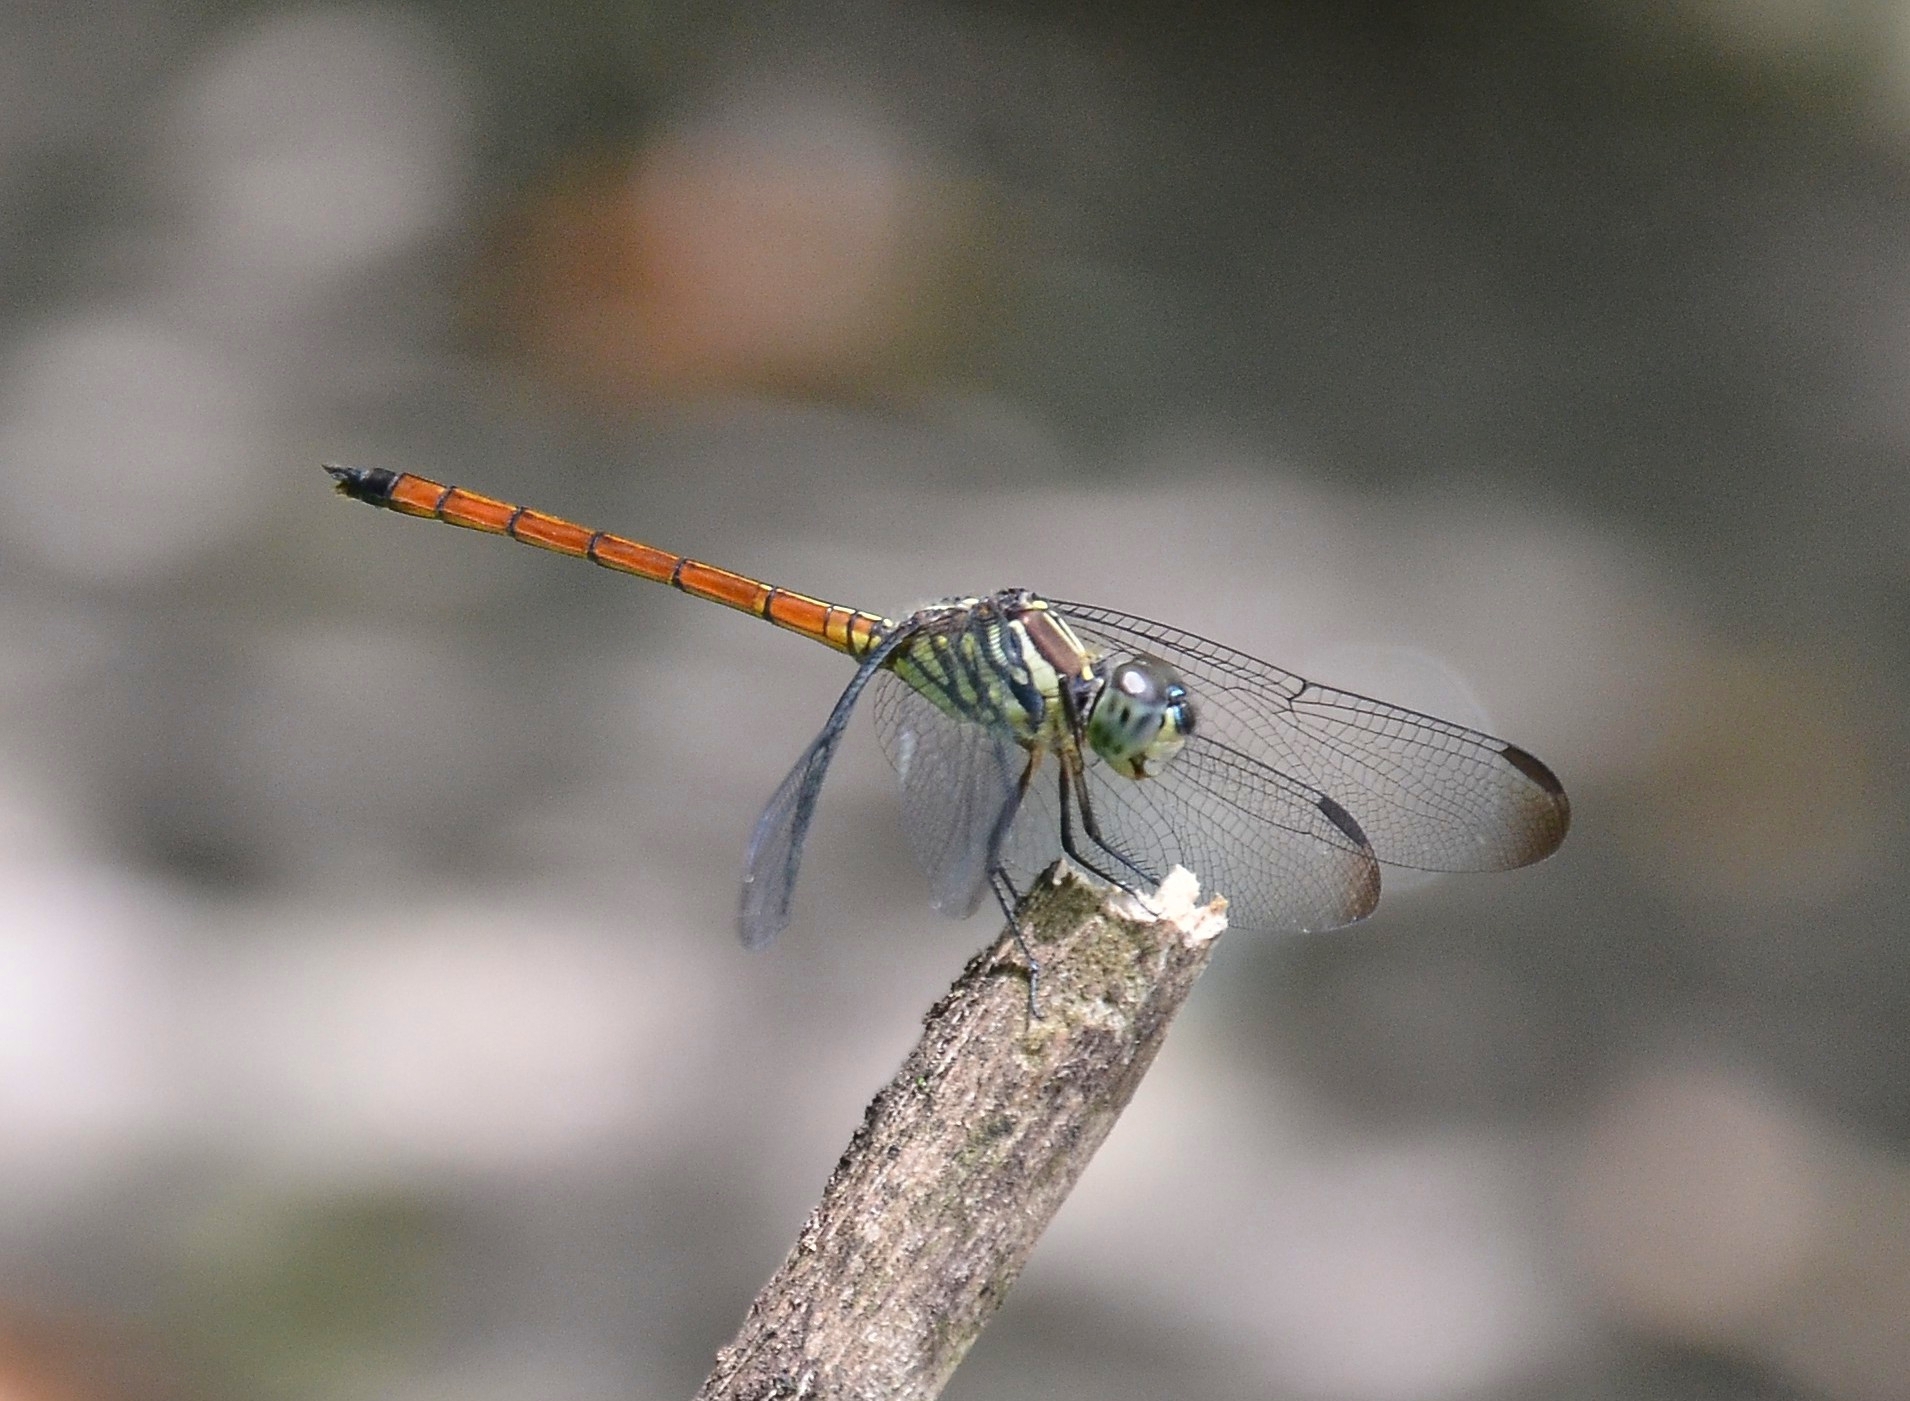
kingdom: Animalia
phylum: Arthropoda
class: Insecta
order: Odonata
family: Libellulidae
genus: Lathrecista
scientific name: Lathrecista asiatica
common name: Scarlet grenadier
